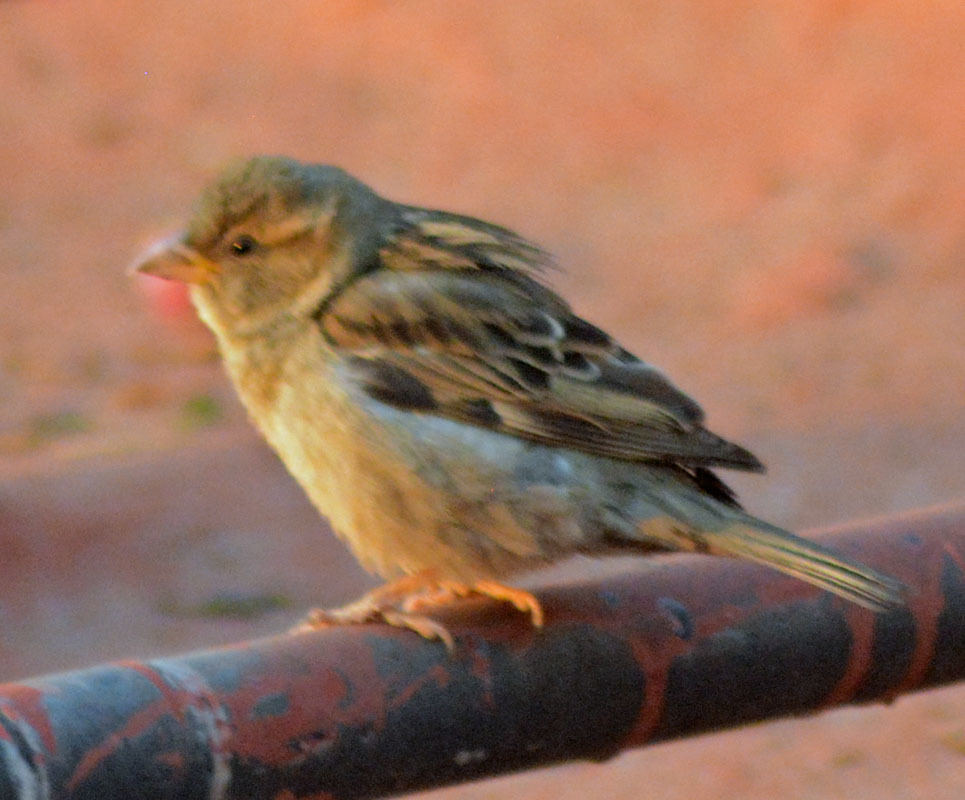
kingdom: Animalia
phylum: Chordata
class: Aves
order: Passeriformes
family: Passeridae
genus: Passer
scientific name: Passer domesticus
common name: House sparrow
